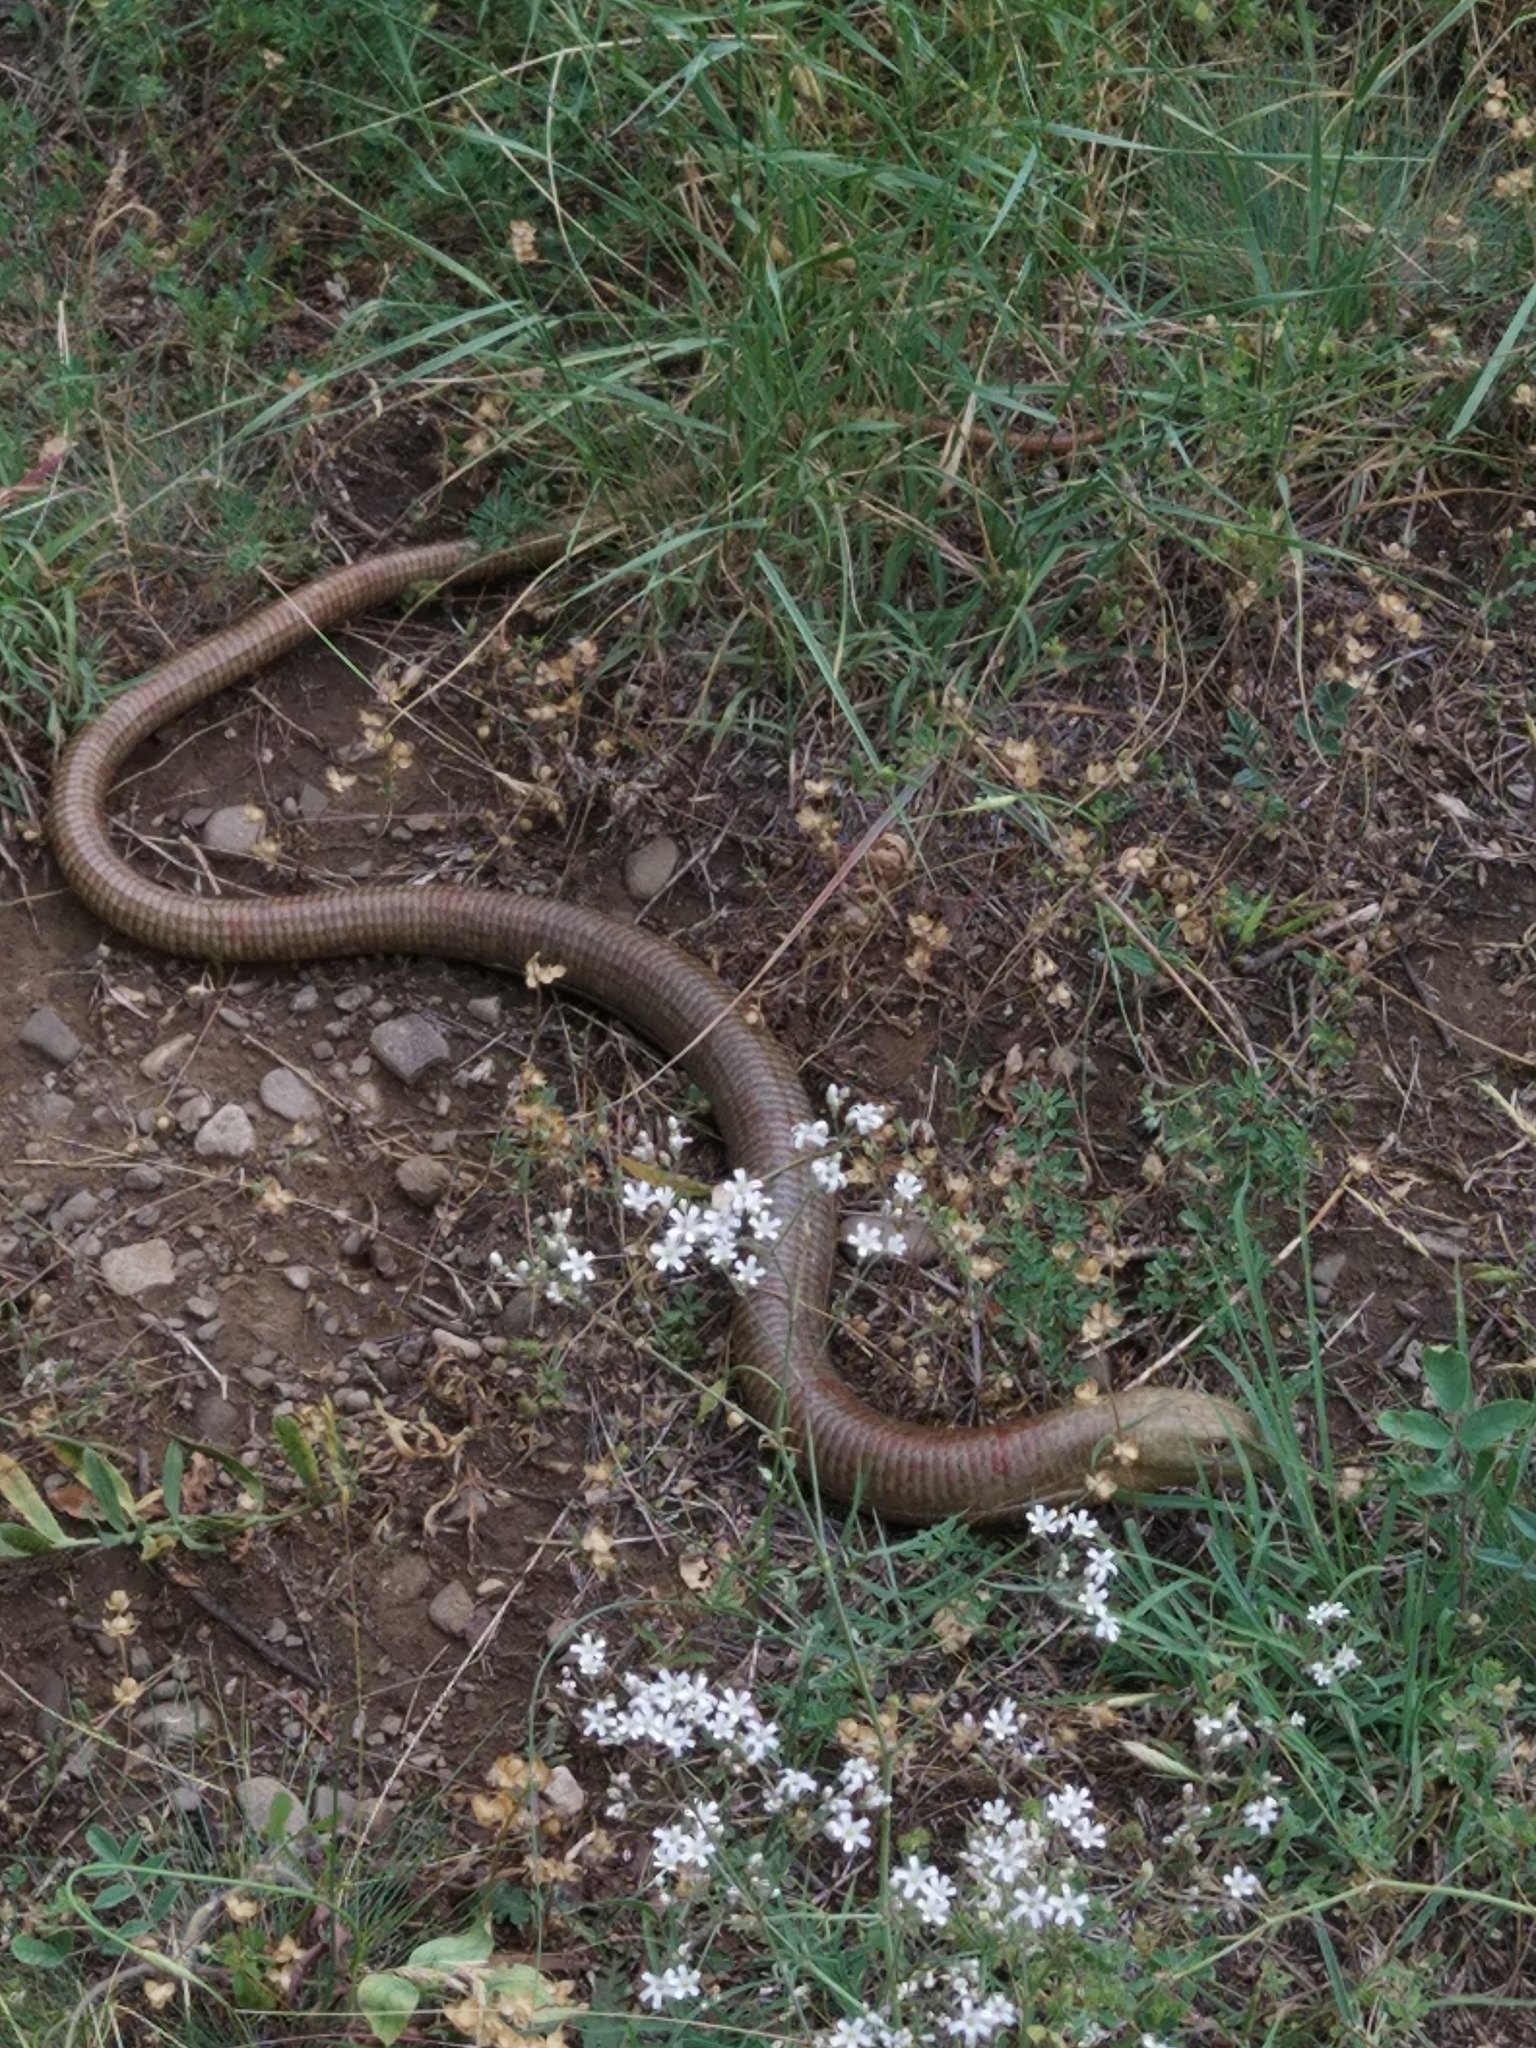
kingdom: Animalia
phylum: Chordata
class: Squamata
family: Anguidae
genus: Pseudopus
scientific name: Pseudopus apodus
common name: European glass lizard
